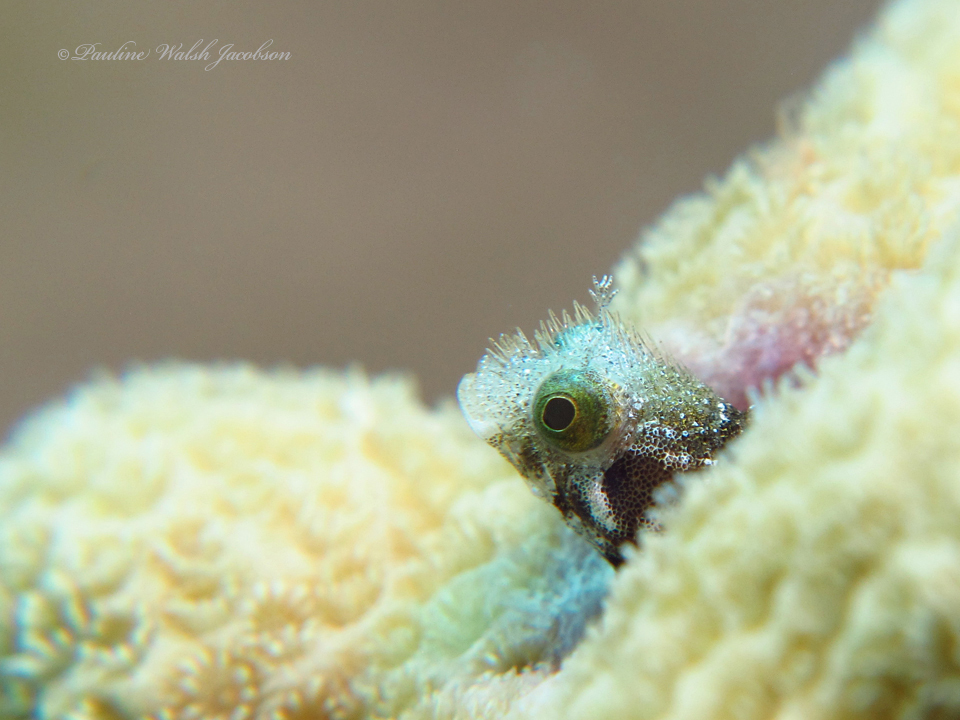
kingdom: Animalia
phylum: Chordata
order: Perciformes
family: Chaenopsidae
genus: Acanthemblemaria
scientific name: Acanthemblemaria spinosa
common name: Spinyhead blenny
